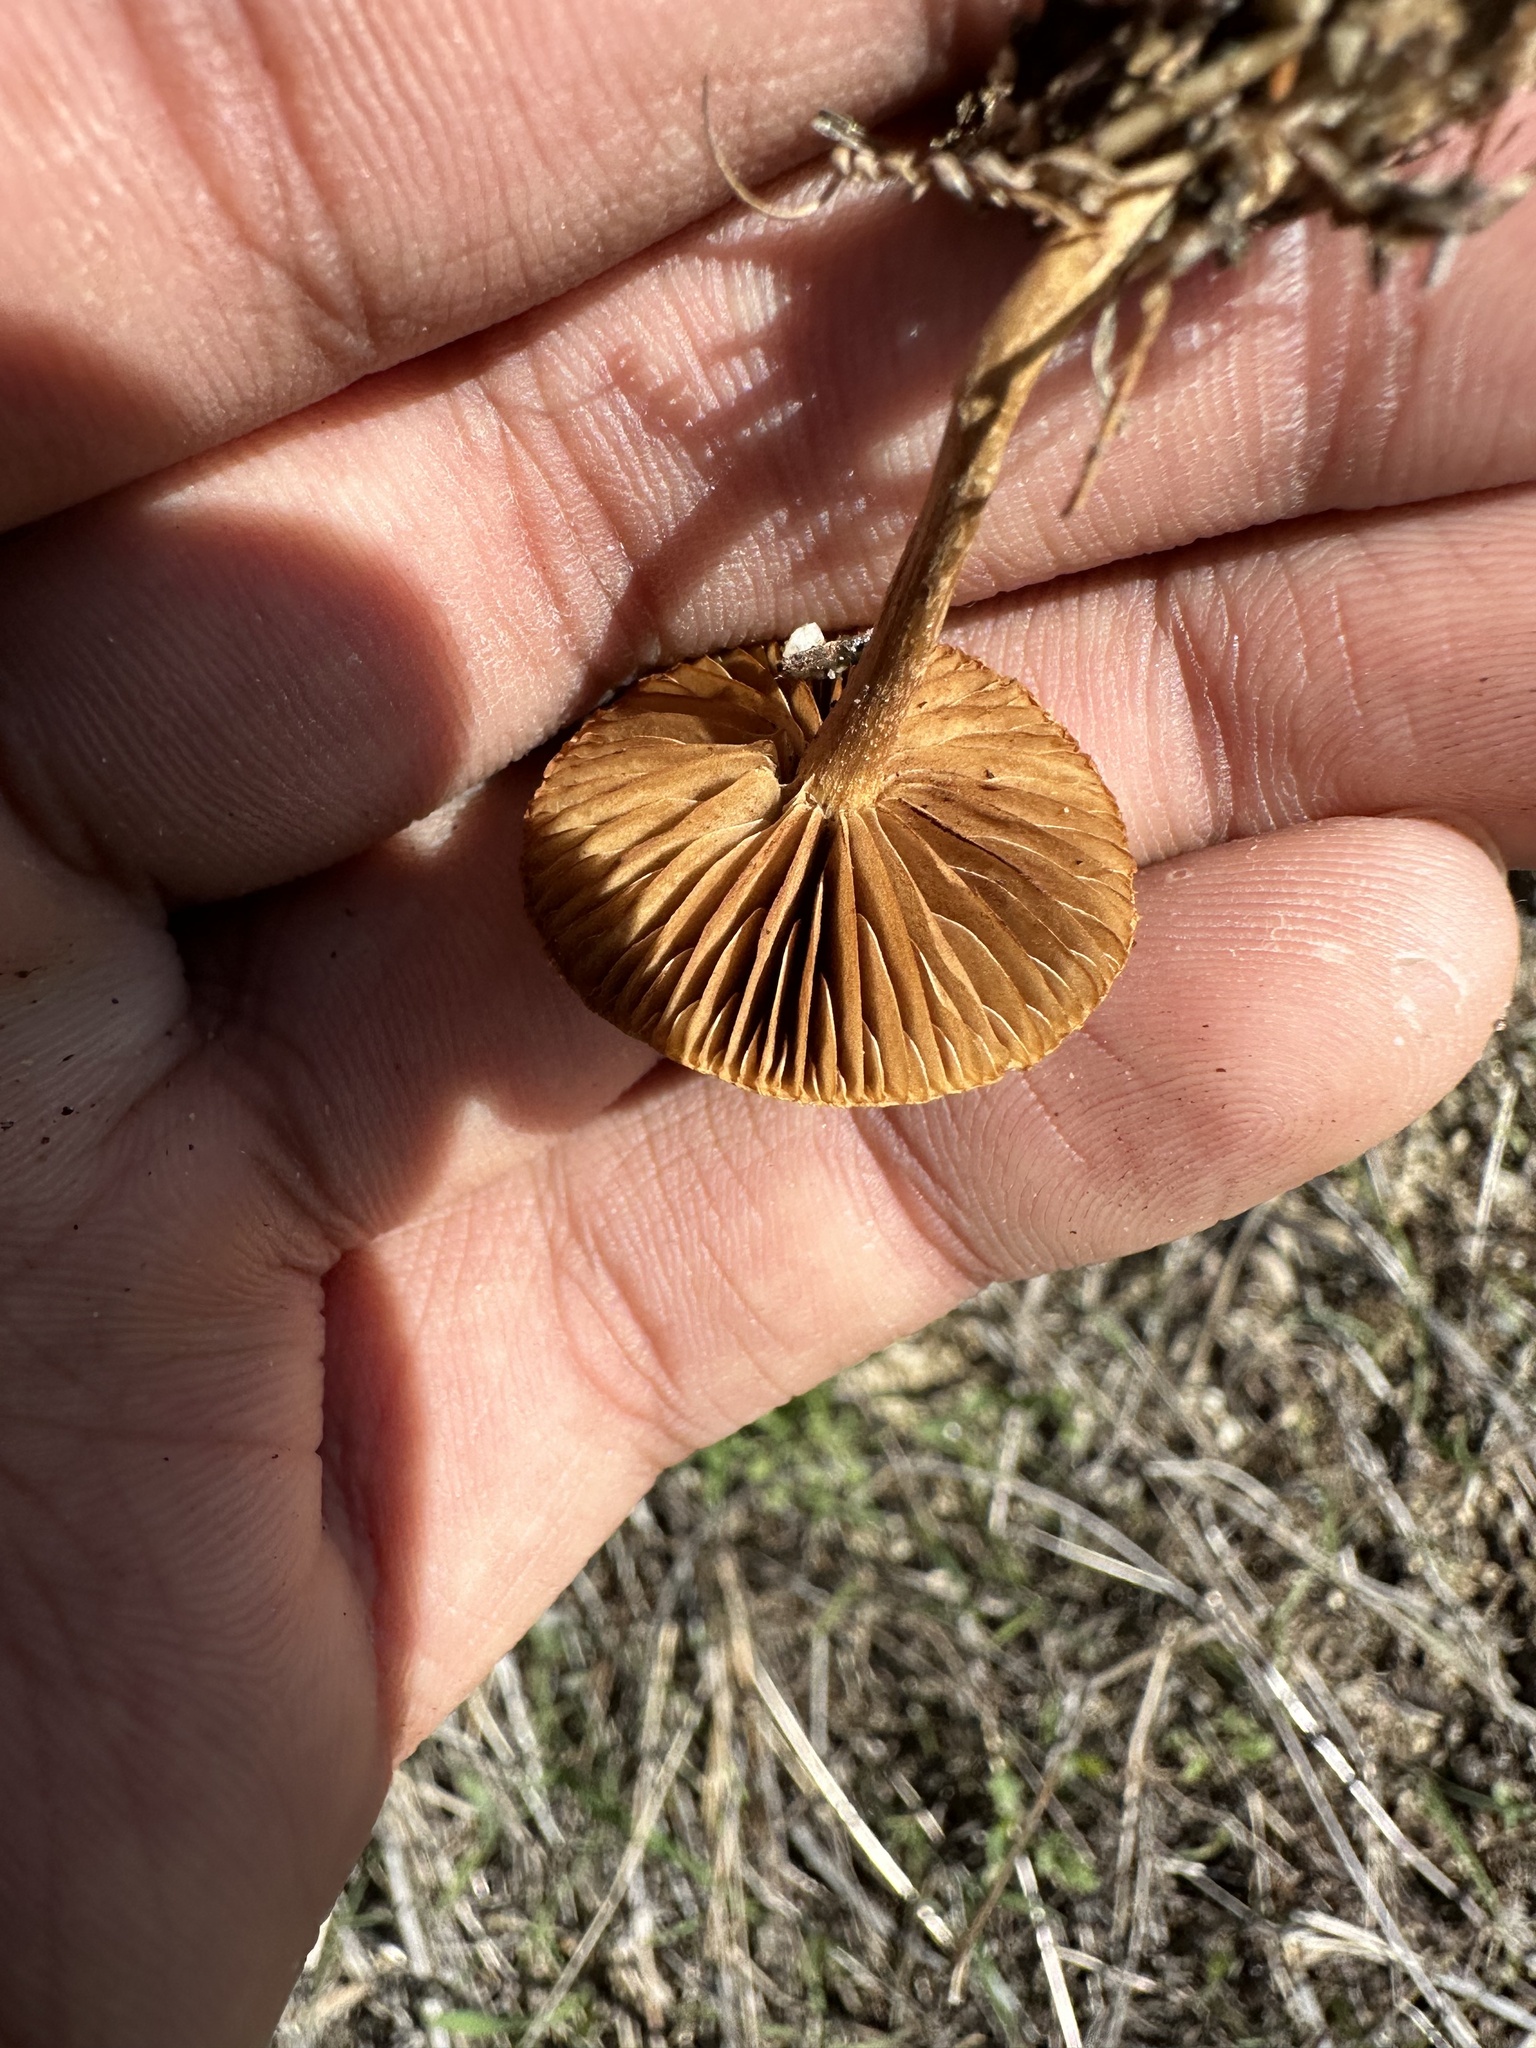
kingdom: Fungi
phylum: Basidiomycota
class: Agaricomycetes
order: Agaricales
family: Strophariaceae
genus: Agrocybe
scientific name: Agrocybe pediades
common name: Common fieldcap
